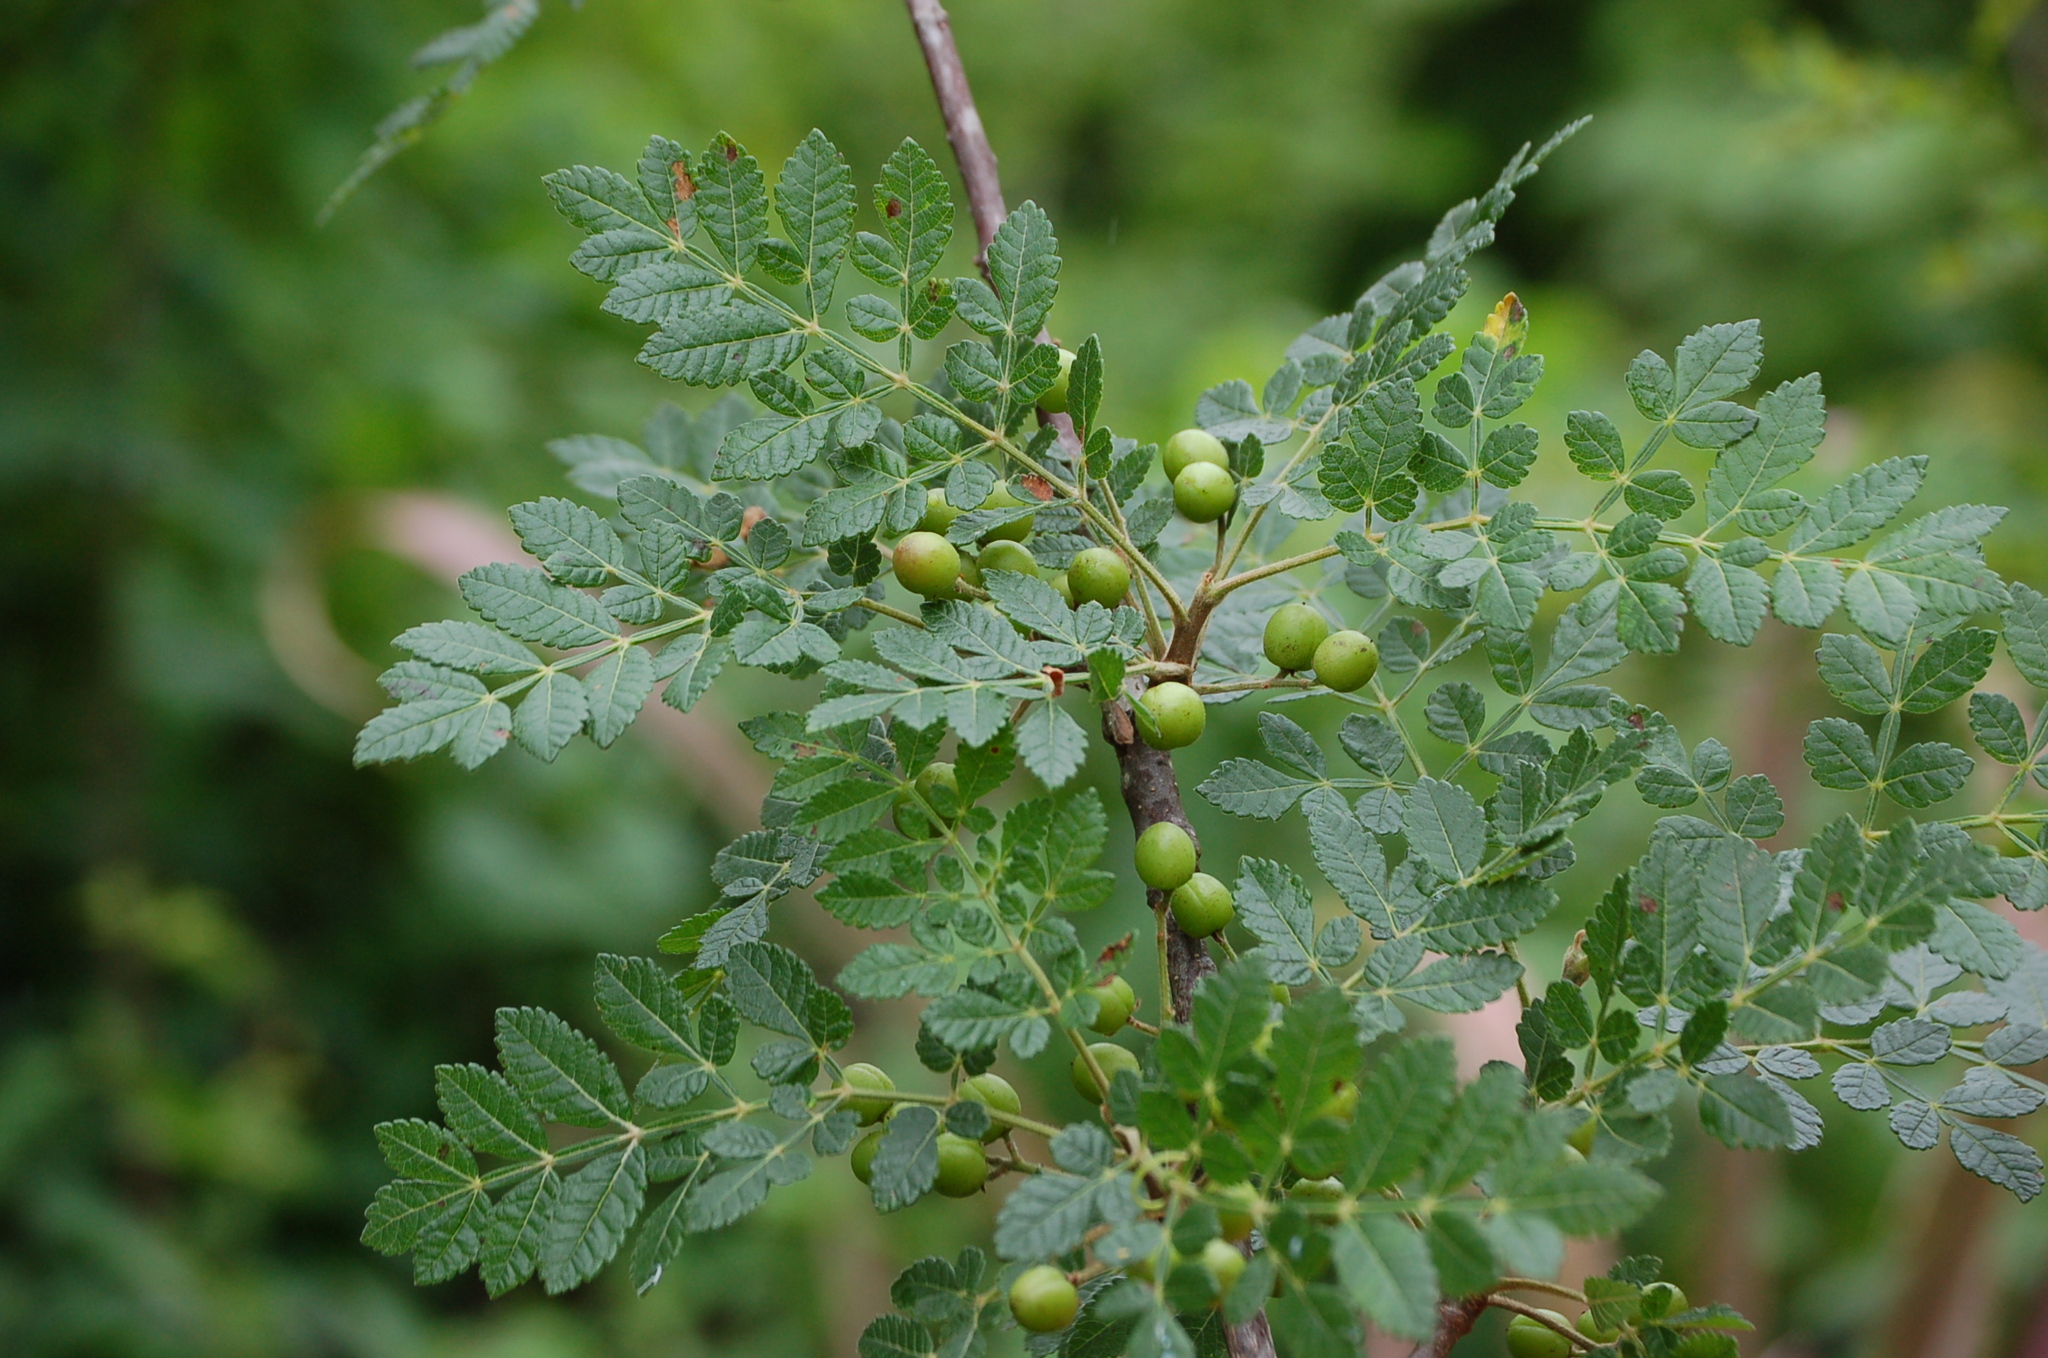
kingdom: Plantae
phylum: Tracheophyta
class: Magnoliopsida
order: Sapindales
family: Burseraceae
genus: Bursera
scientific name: Bursera bipinnata
